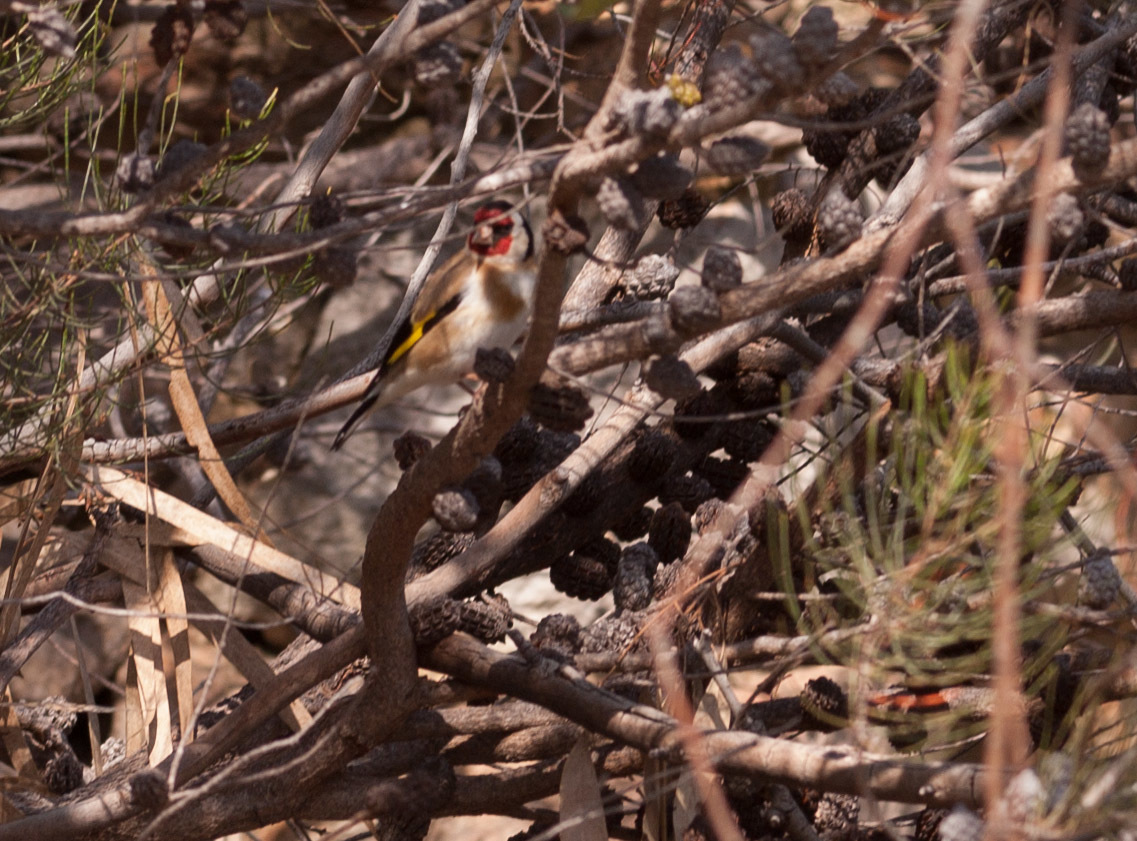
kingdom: Animalia
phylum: Chordata
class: Aves
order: Passeriformes
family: Fringillidae
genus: Carduelis
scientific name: Carduelis carduelis
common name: European goldfinch
